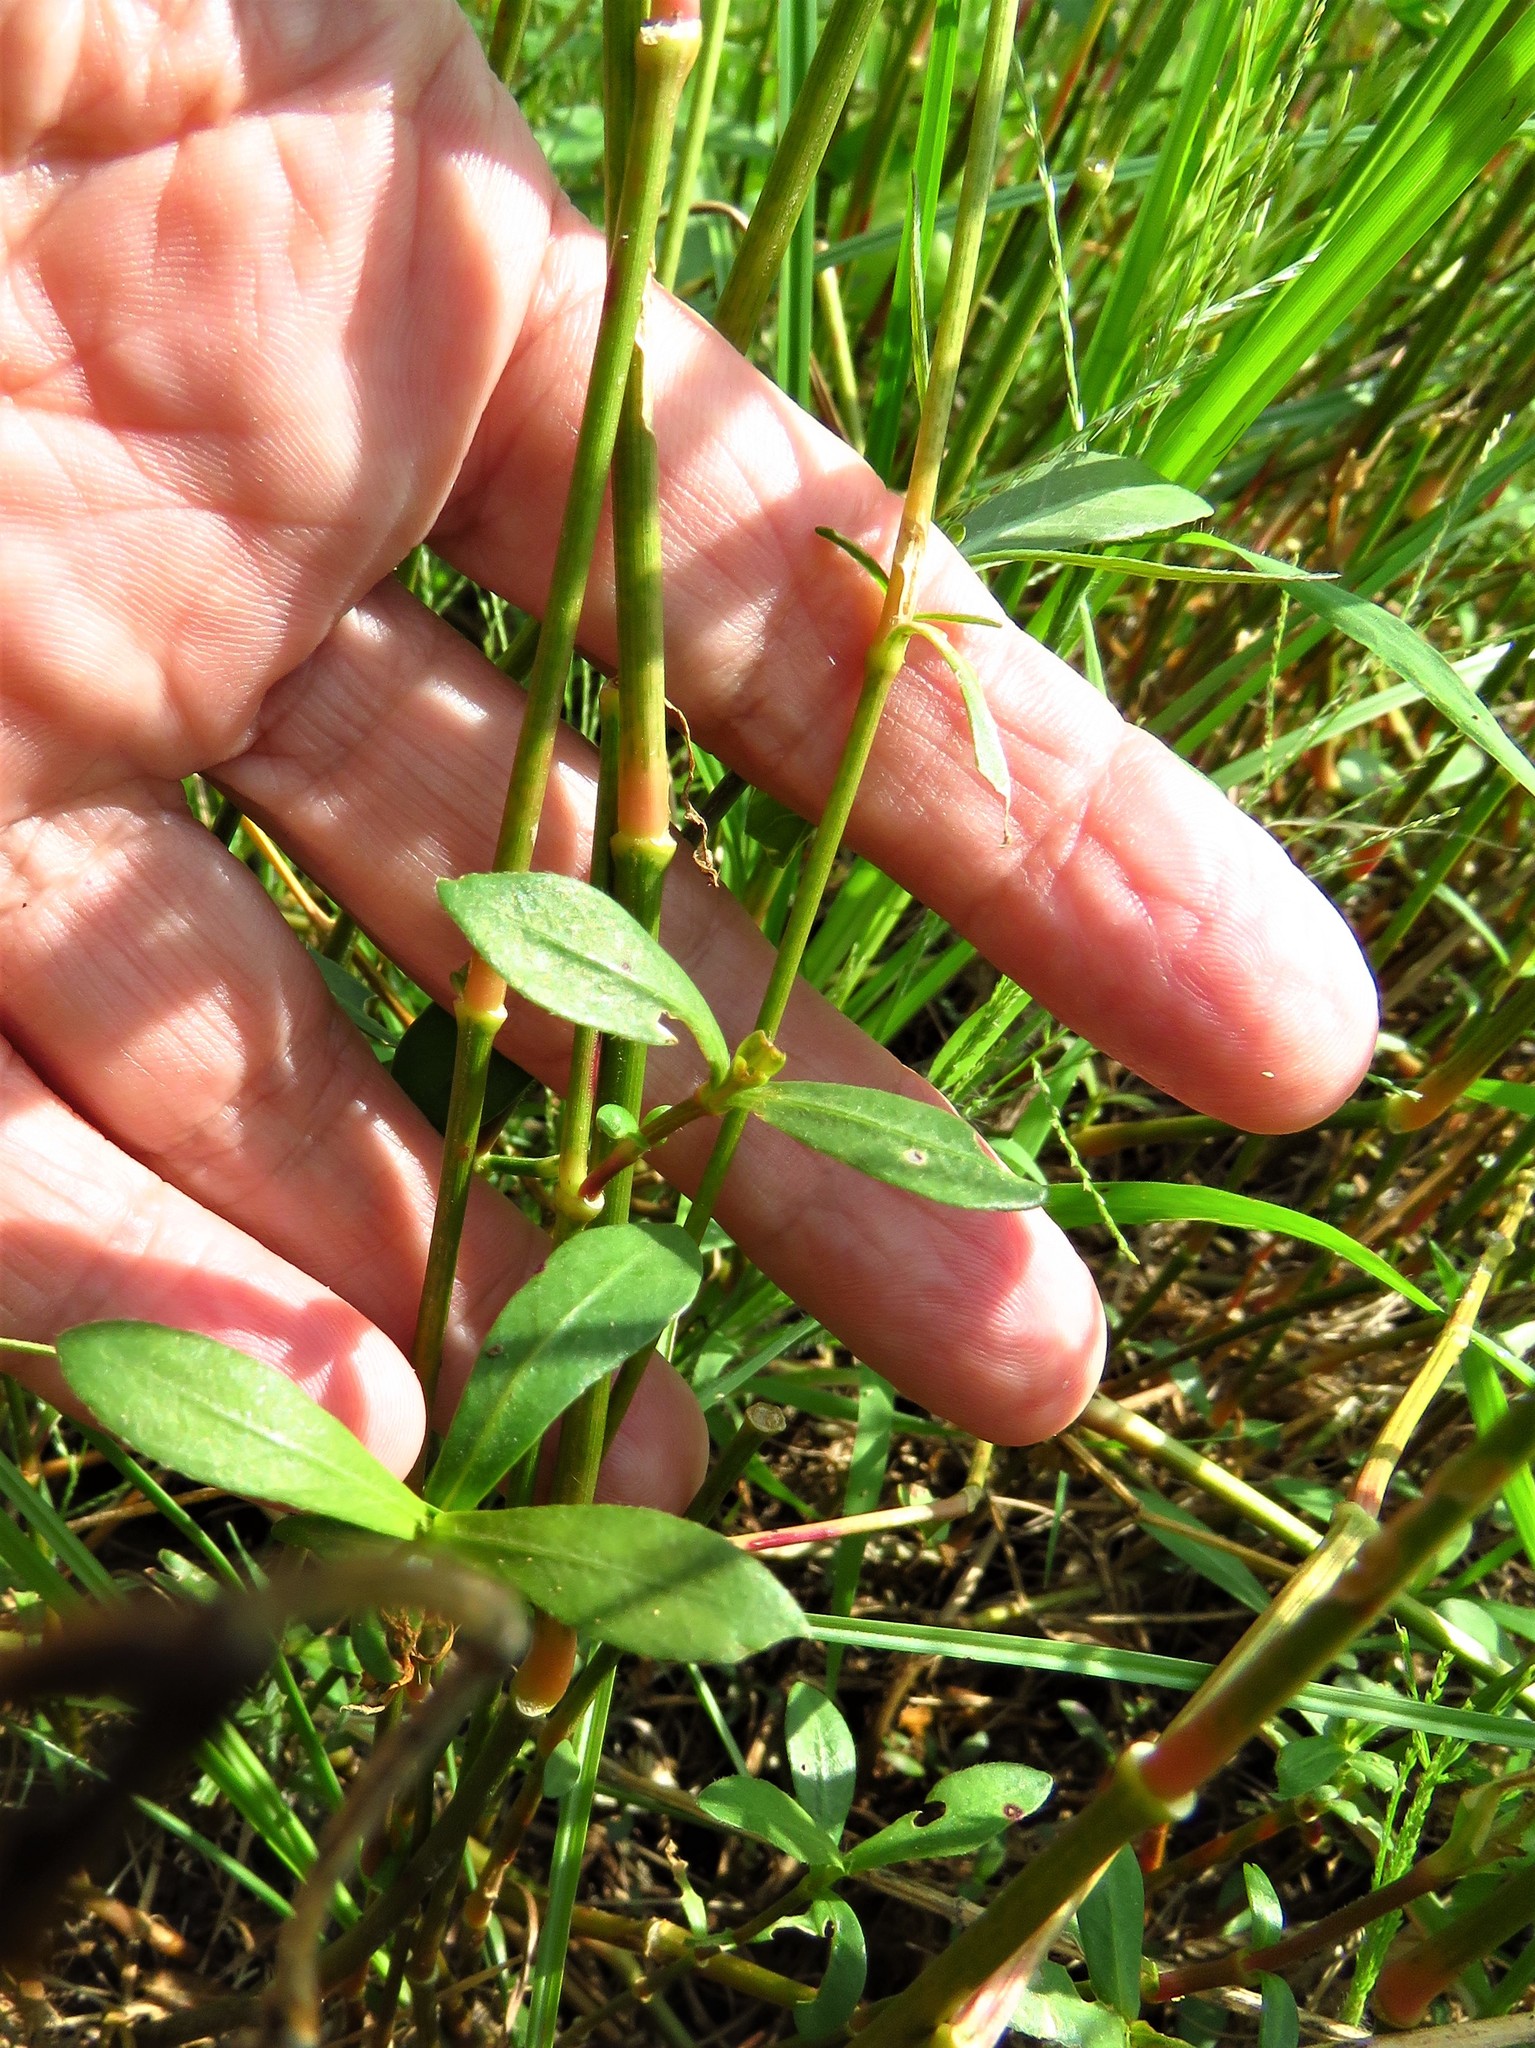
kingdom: Plantae
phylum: Tracheophyta
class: Magnoliopsida
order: Caryophyllales
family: Amaranthaceae
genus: Alternanthera
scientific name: Alternanthera philoxeroides
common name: Alligatorweed
